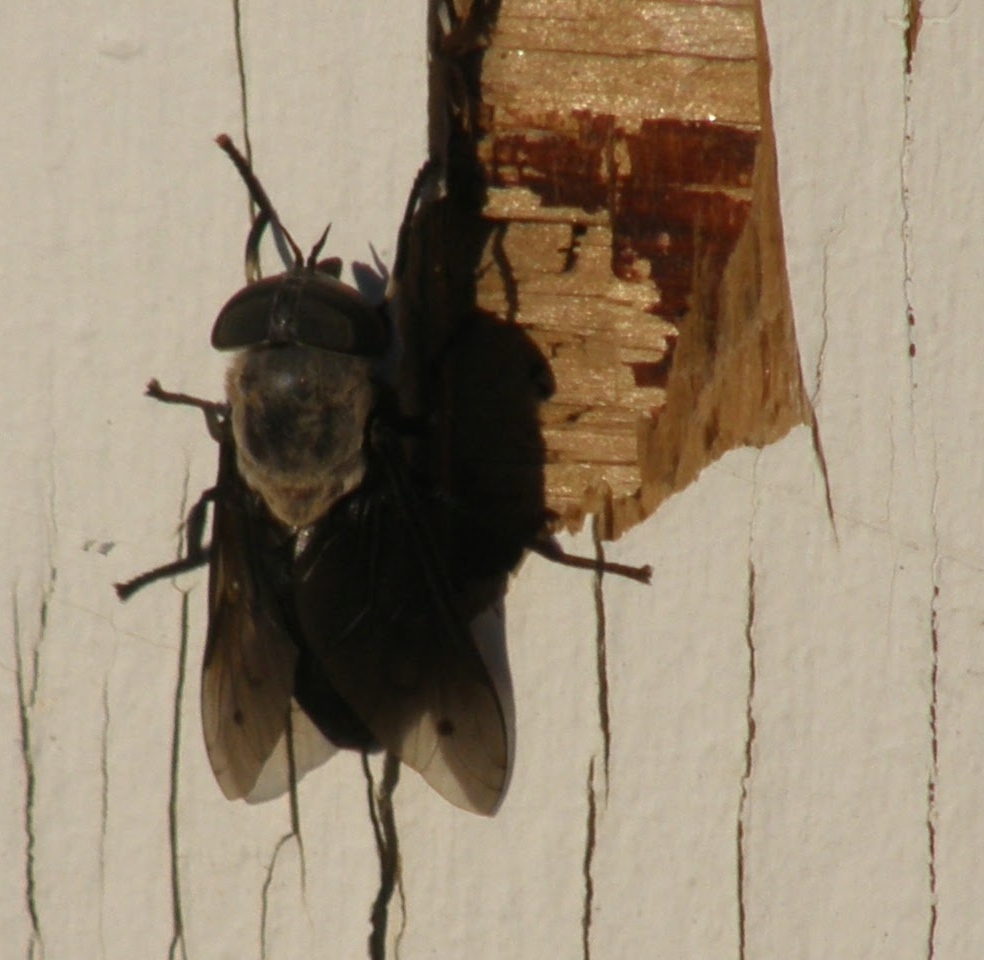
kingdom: Animalia
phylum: Arthropoda
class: Insecta
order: Diptera
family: Tabanidae
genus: Tabanus
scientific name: Tabanus punctifer
